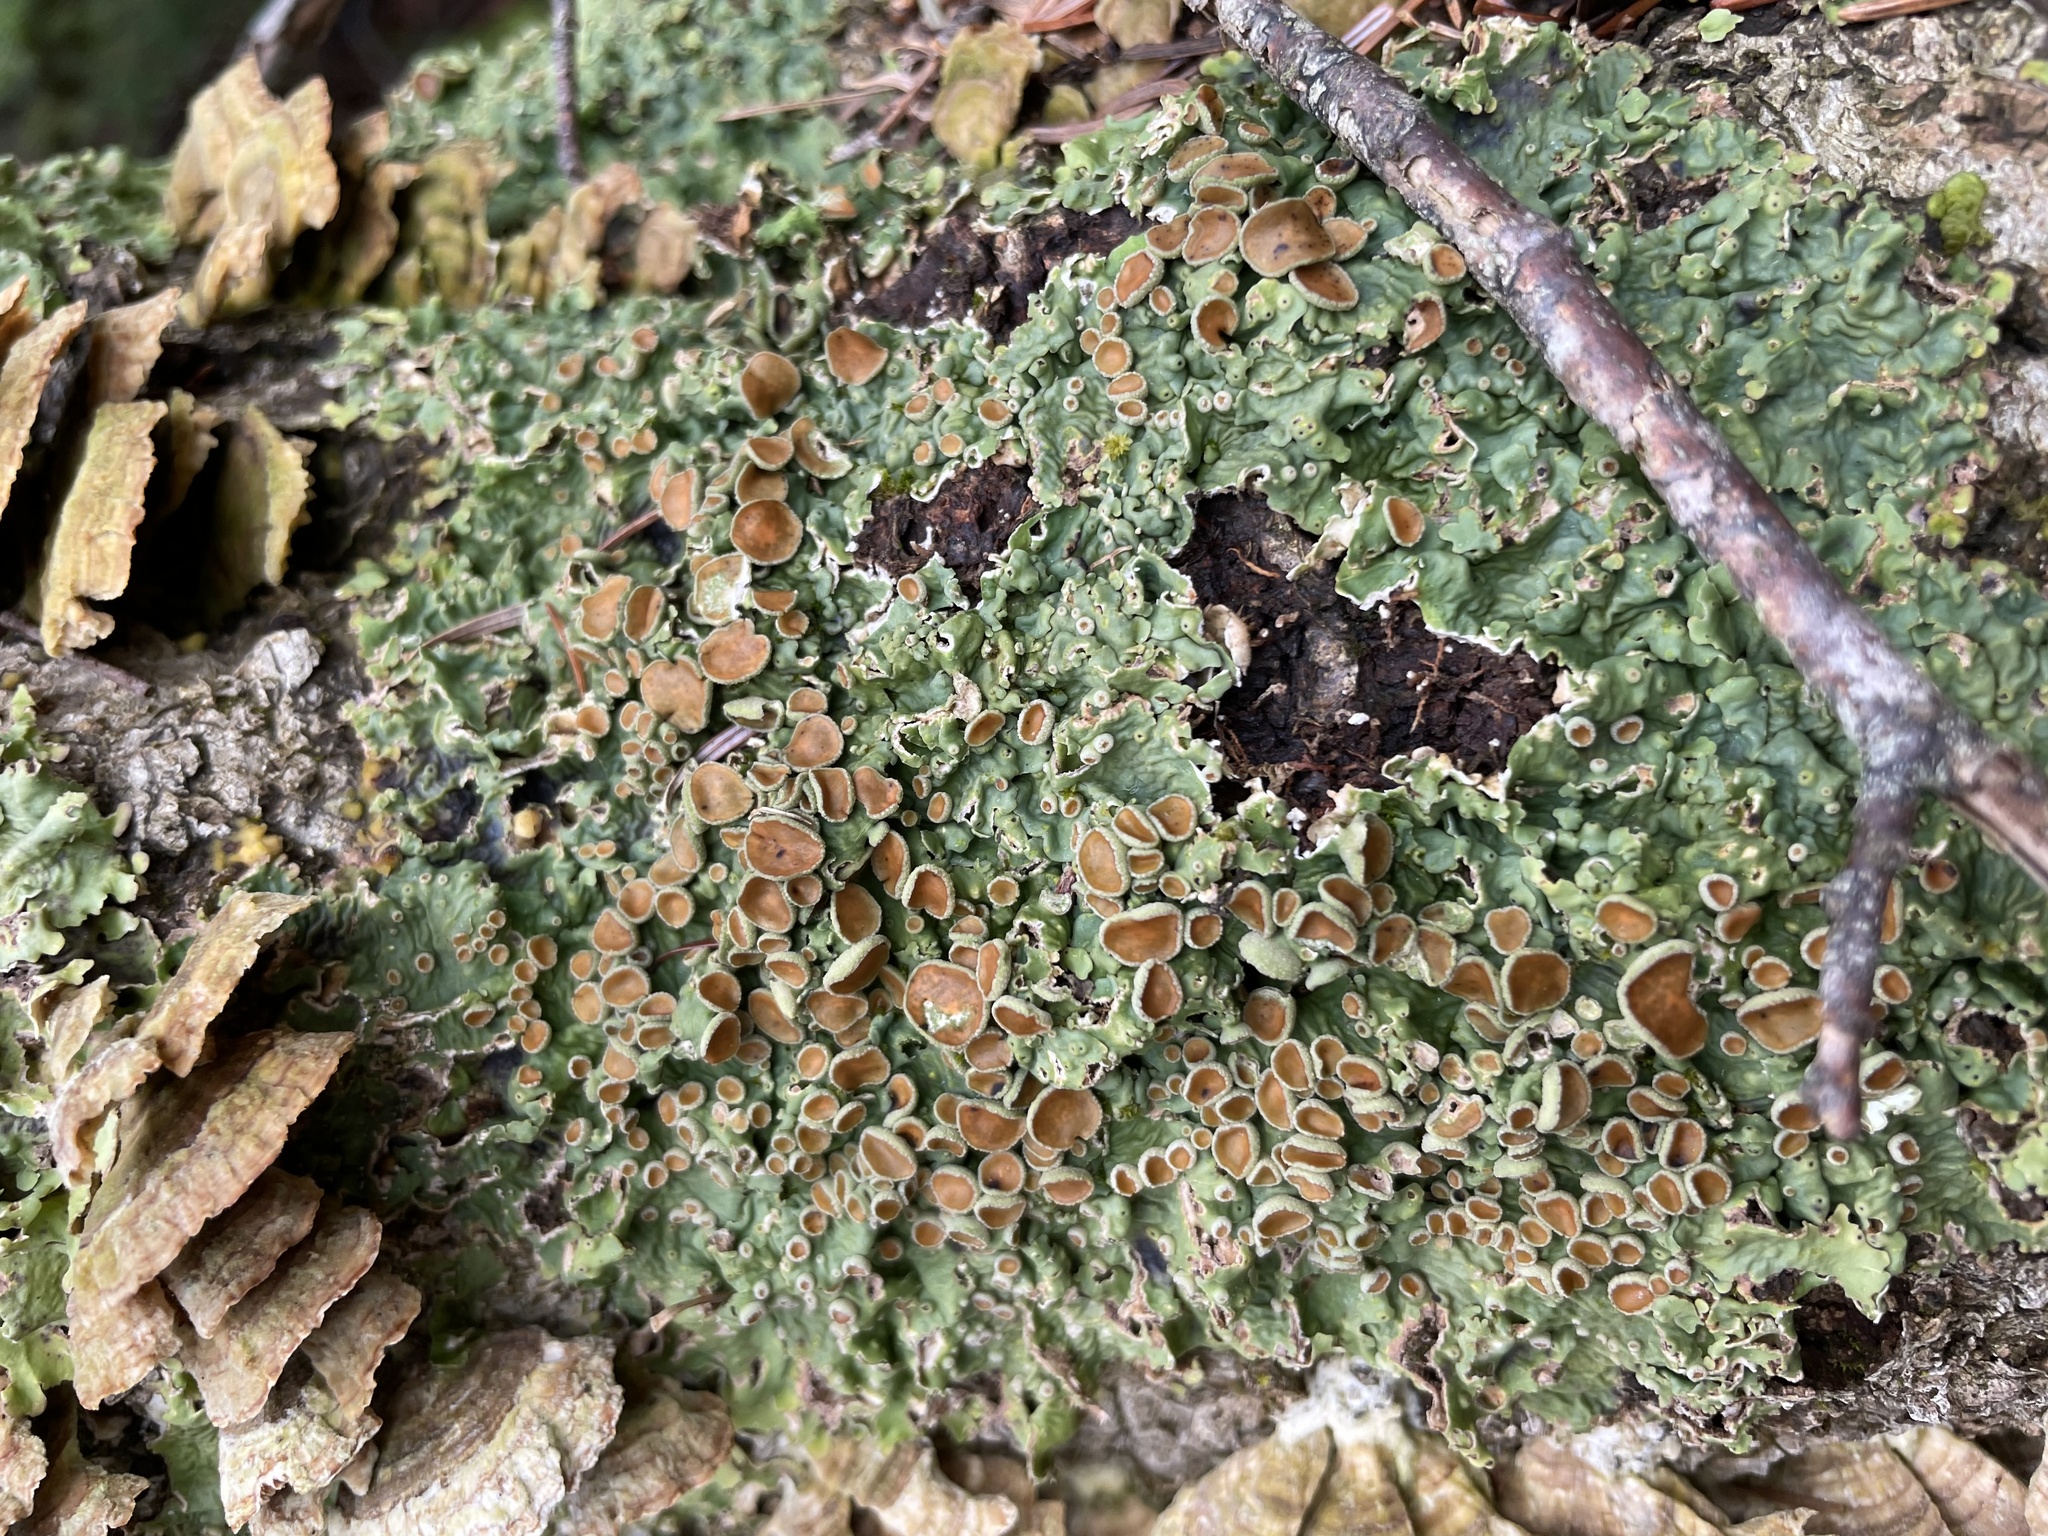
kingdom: Fungi
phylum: Ascomycota
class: Lecanoromycetes
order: Peltigerales
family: Lobariaceae
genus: Ricasolia
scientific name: Ricasolia quercizans
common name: Smooth lungwort
